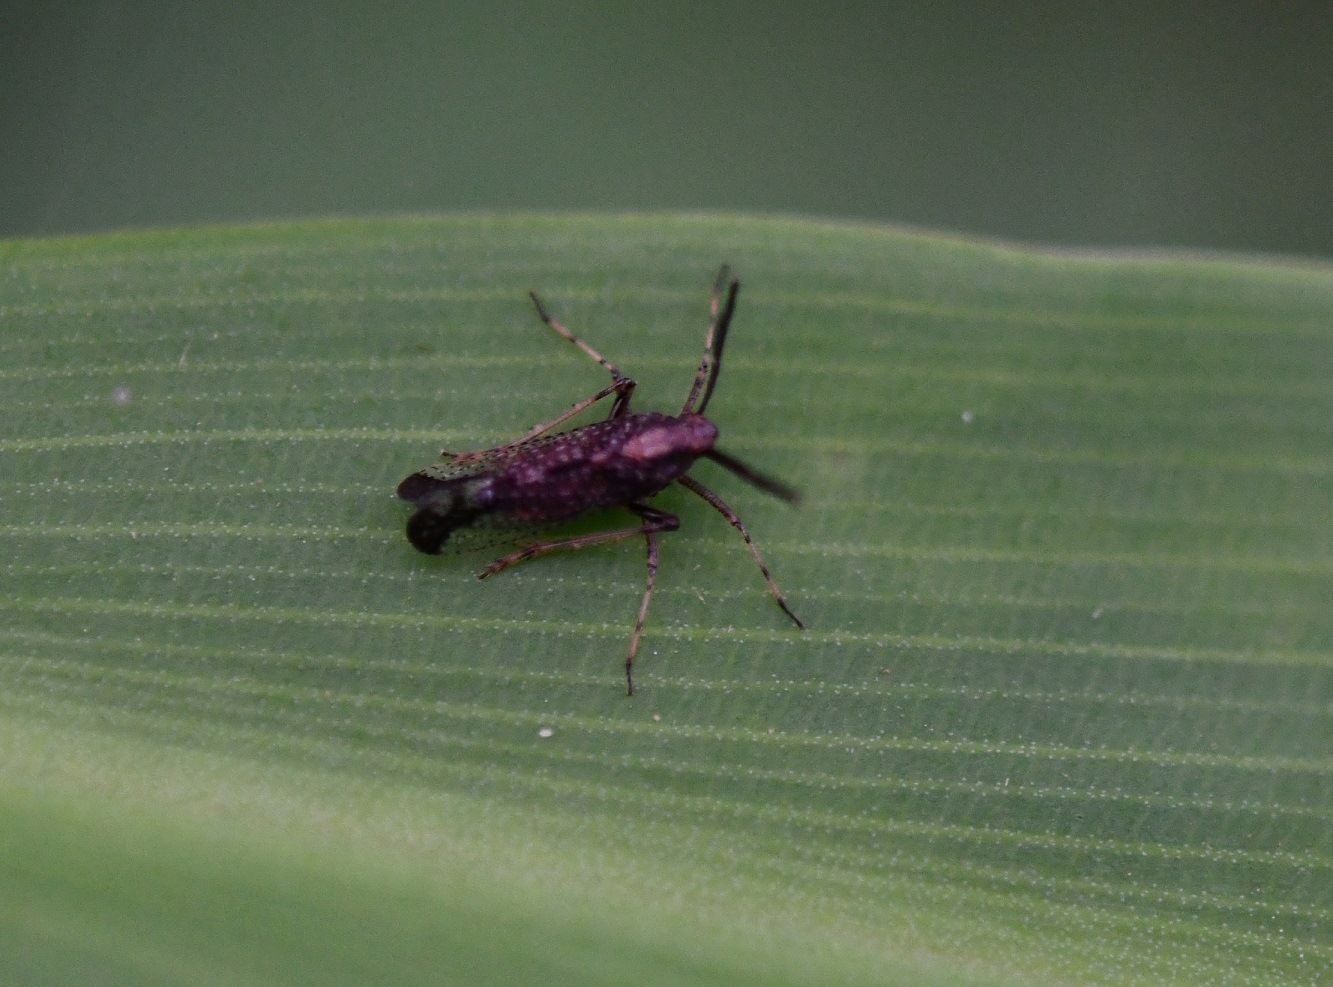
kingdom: Animalia
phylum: Arthropoda
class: Insecta
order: Hemiptera
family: Delphacidae
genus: Copicerus
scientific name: Copicerus irroratus
